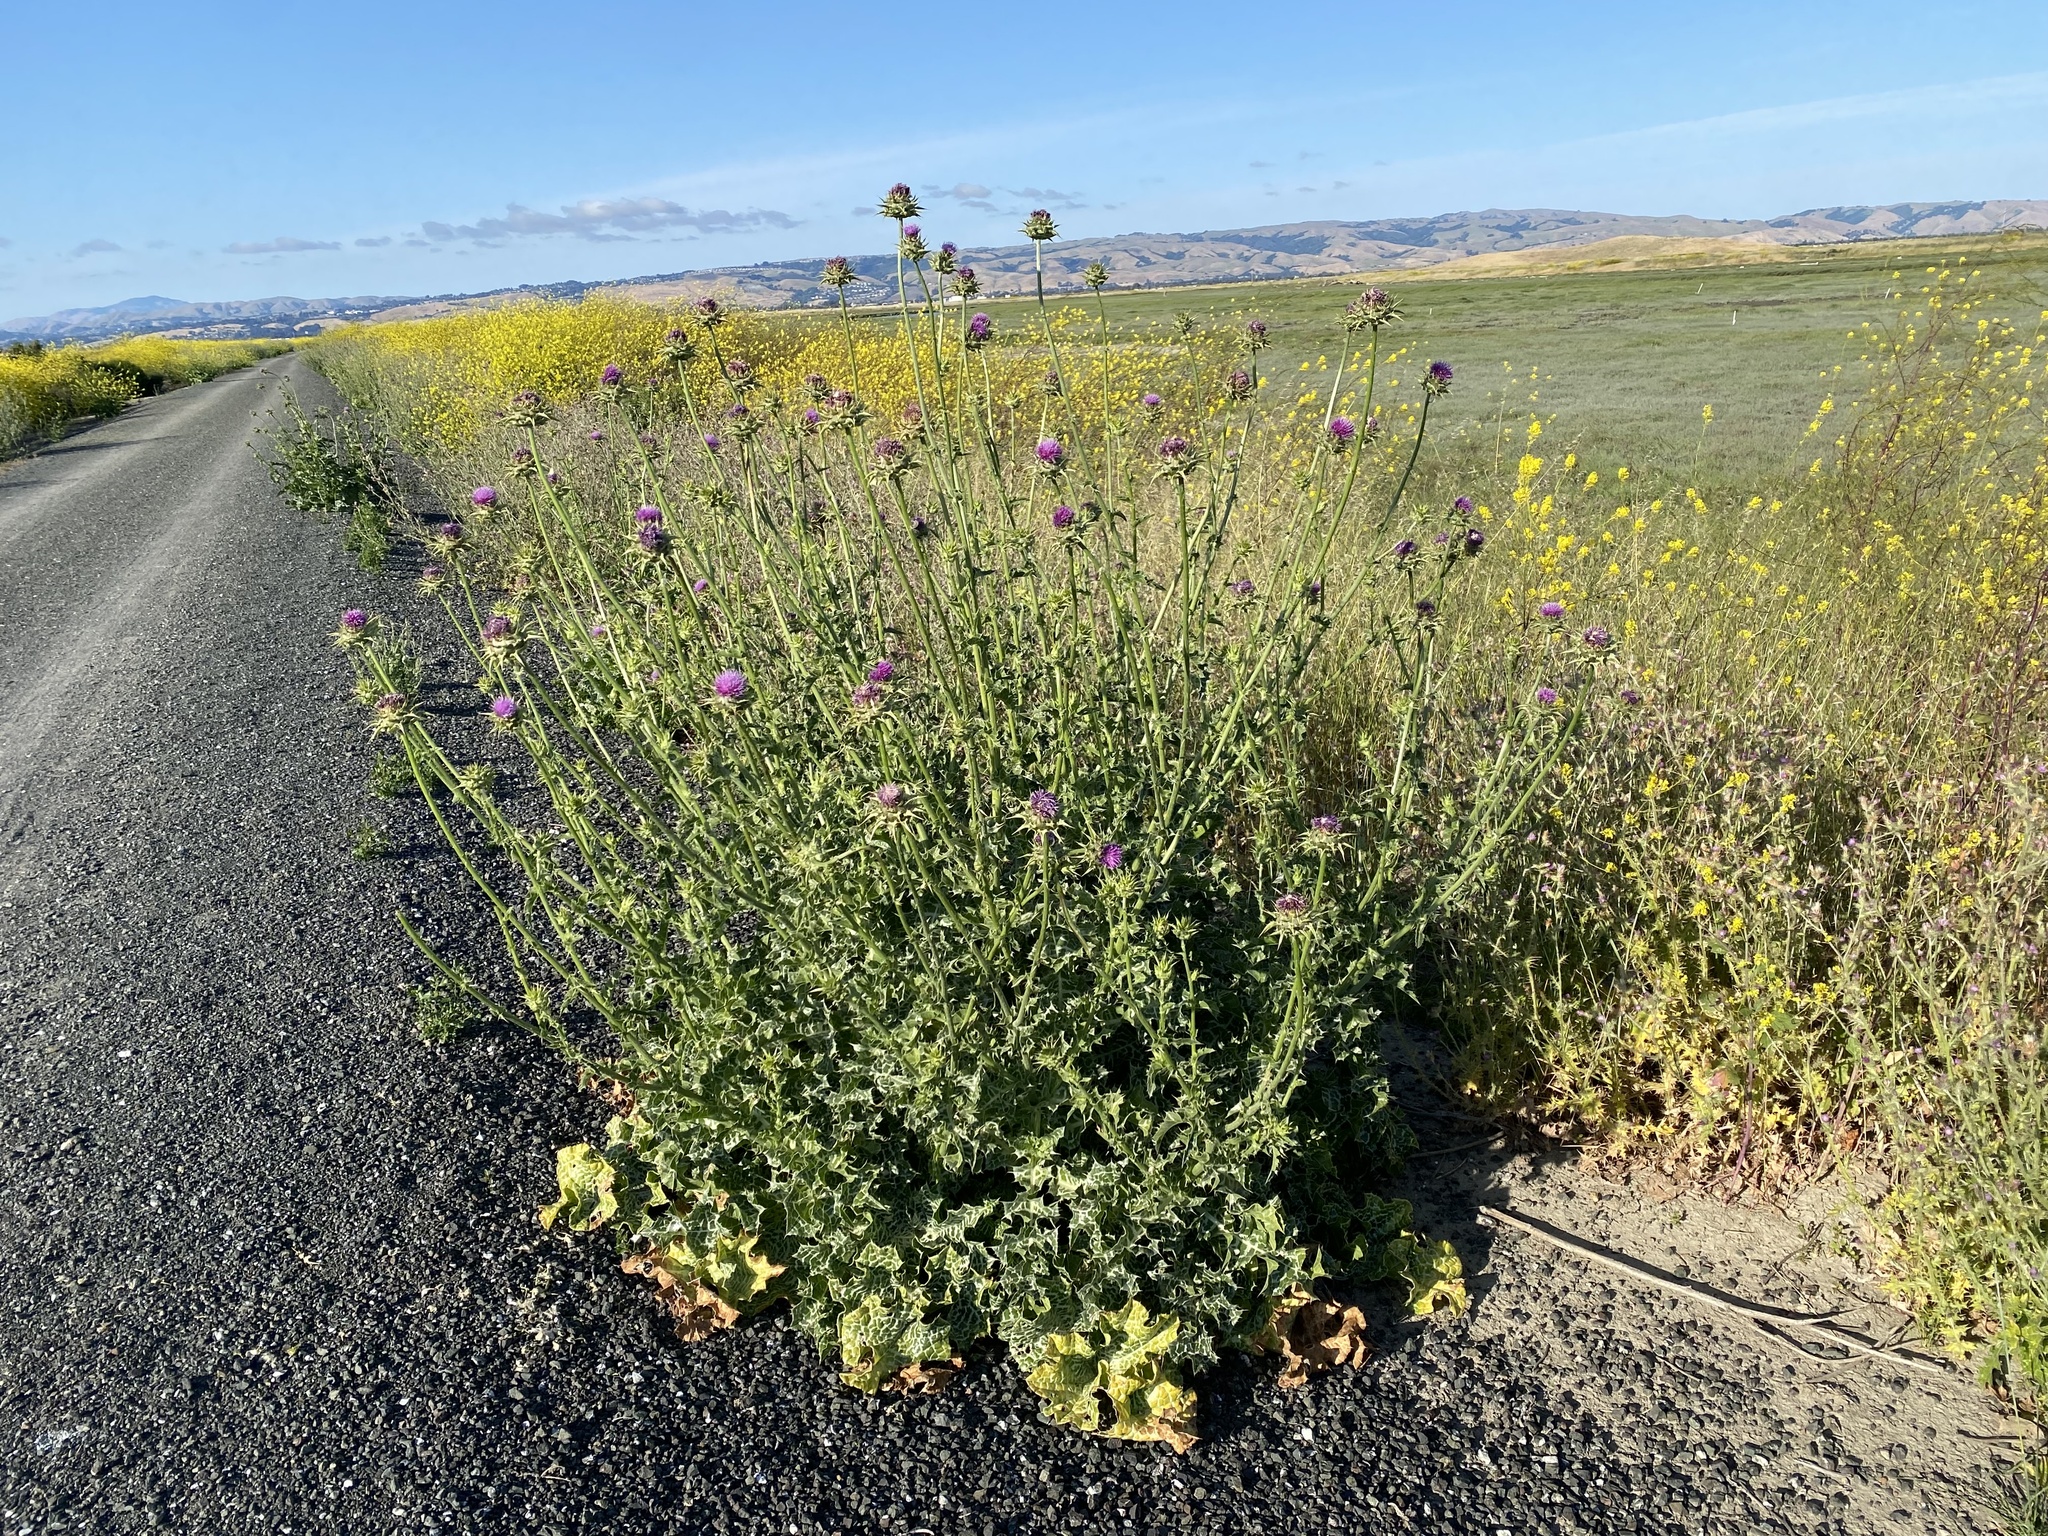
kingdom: Plantae
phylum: Tracheophyta
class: Magnoliopsida
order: Asterales
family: Asteraceae
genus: Silybum
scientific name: Silybum marianum
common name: Milk thistle
